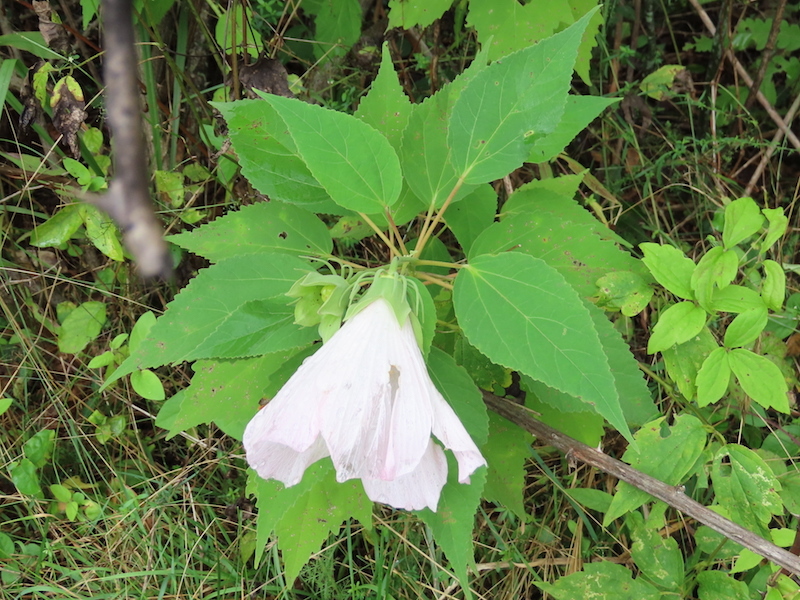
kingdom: Plantae
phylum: Tracheophyta
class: Magnoliopsida
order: Malvales
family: Malvaceae
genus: Hibiscus
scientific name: Hibiscus moscheutos
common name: Common rose-mallow
